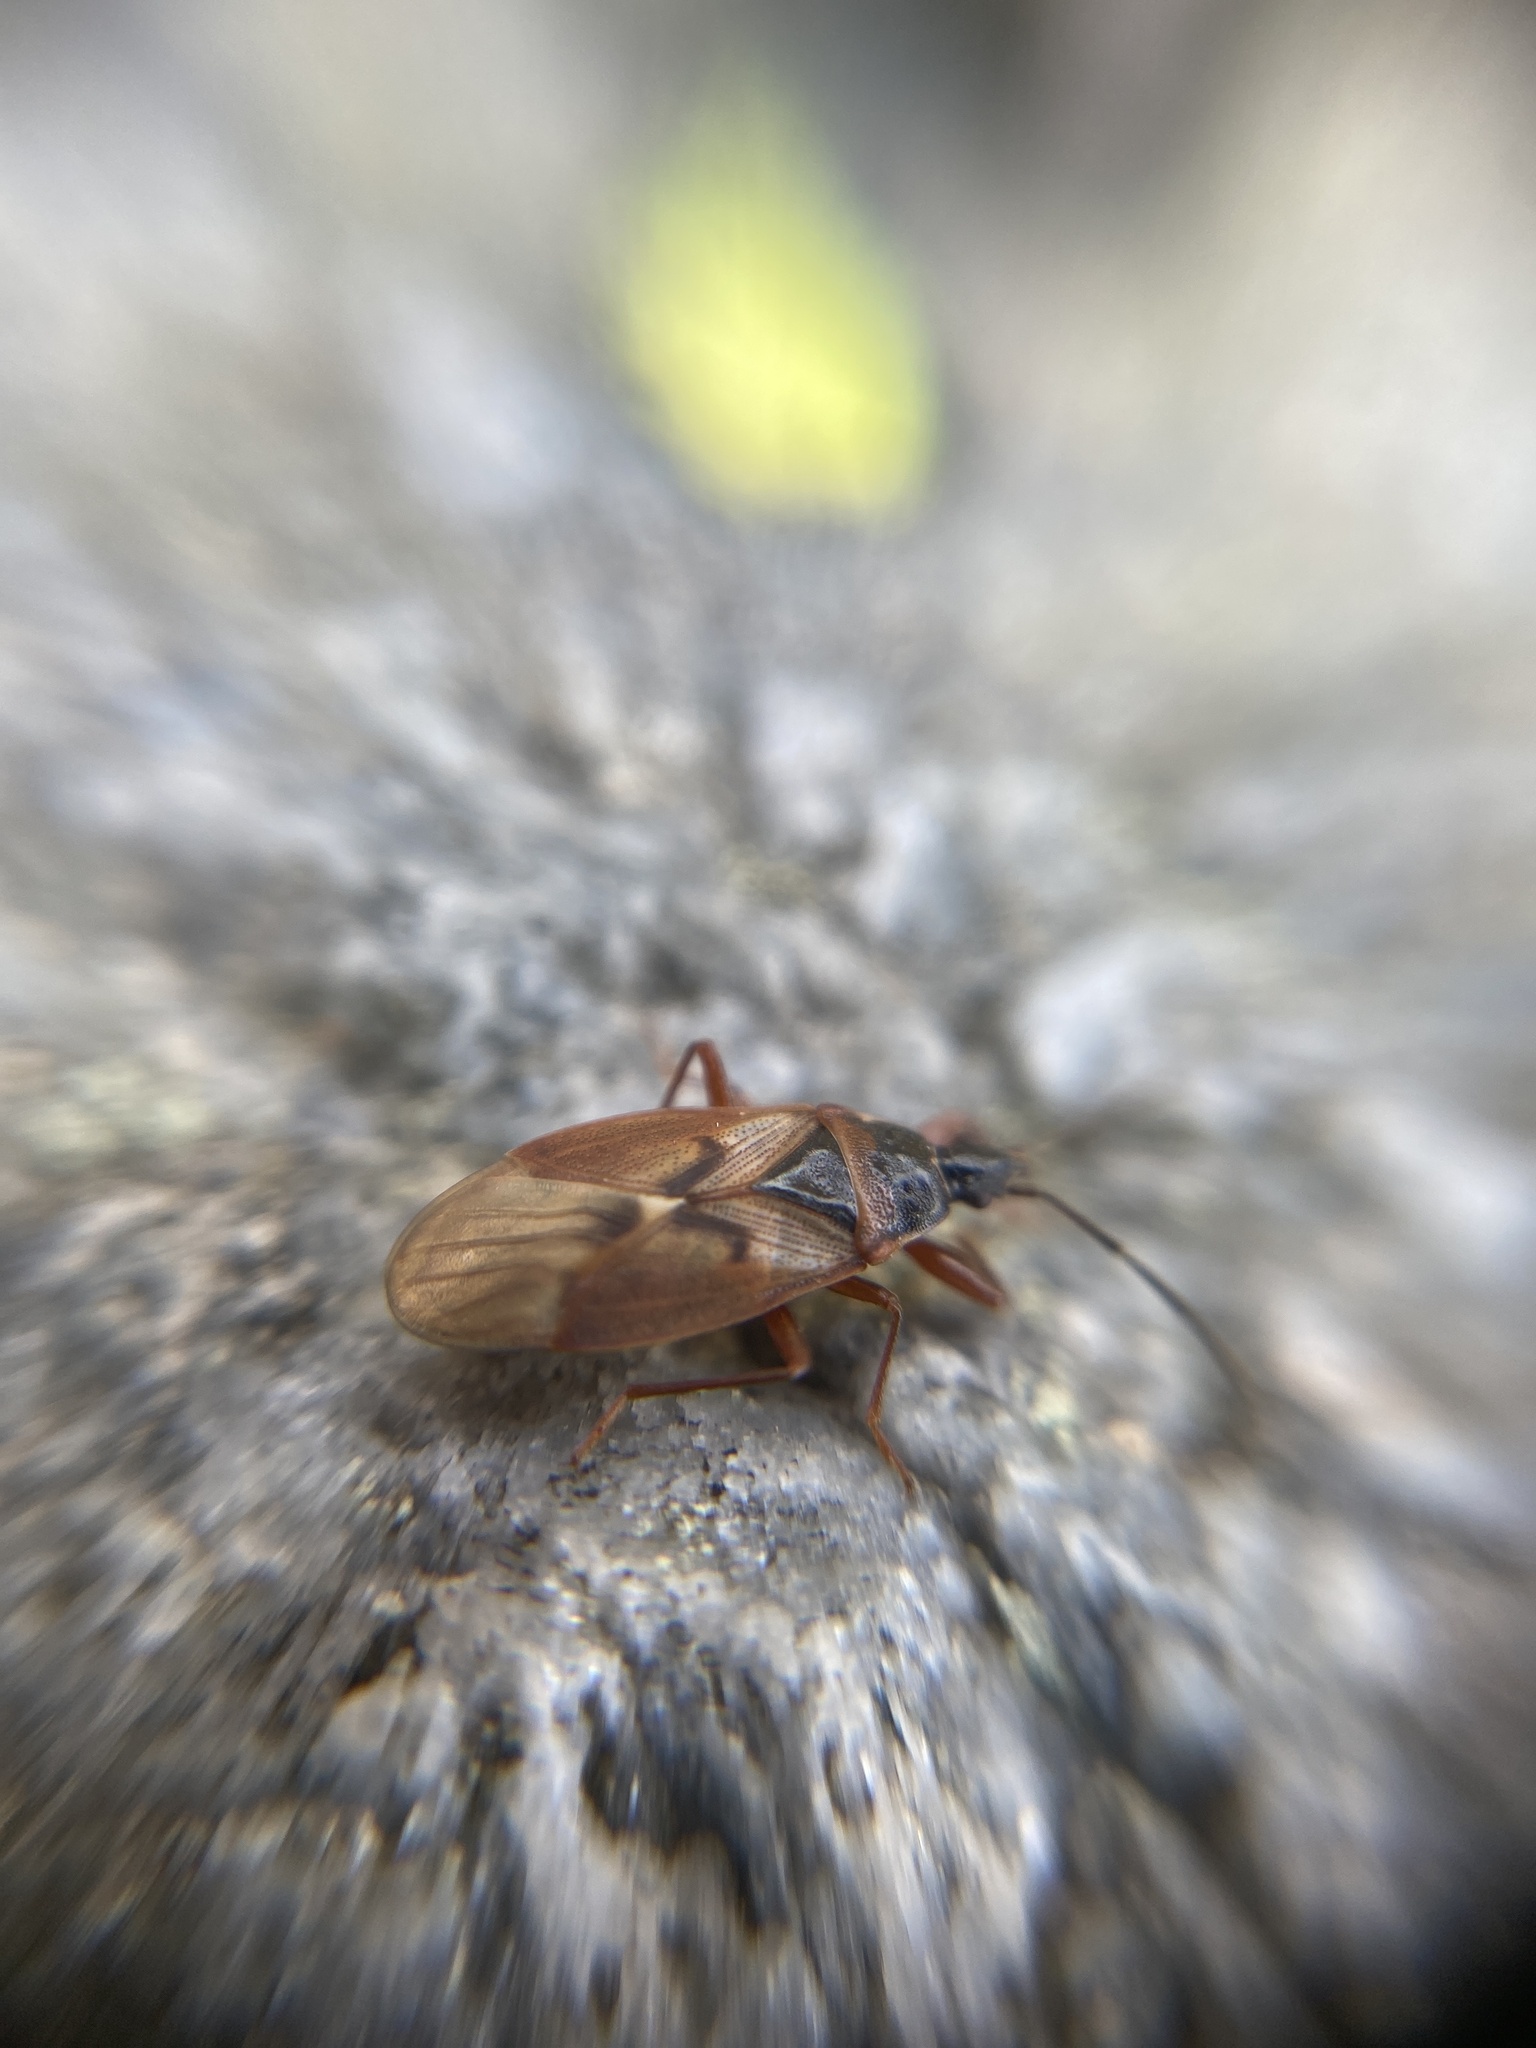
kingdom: Animalia
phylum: Arthropoda
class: Insecta
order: Hemiptera
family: Rhyparochromidae
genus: Gastrodes
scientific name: Gastrodes abietum
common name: Spruce cone bug
